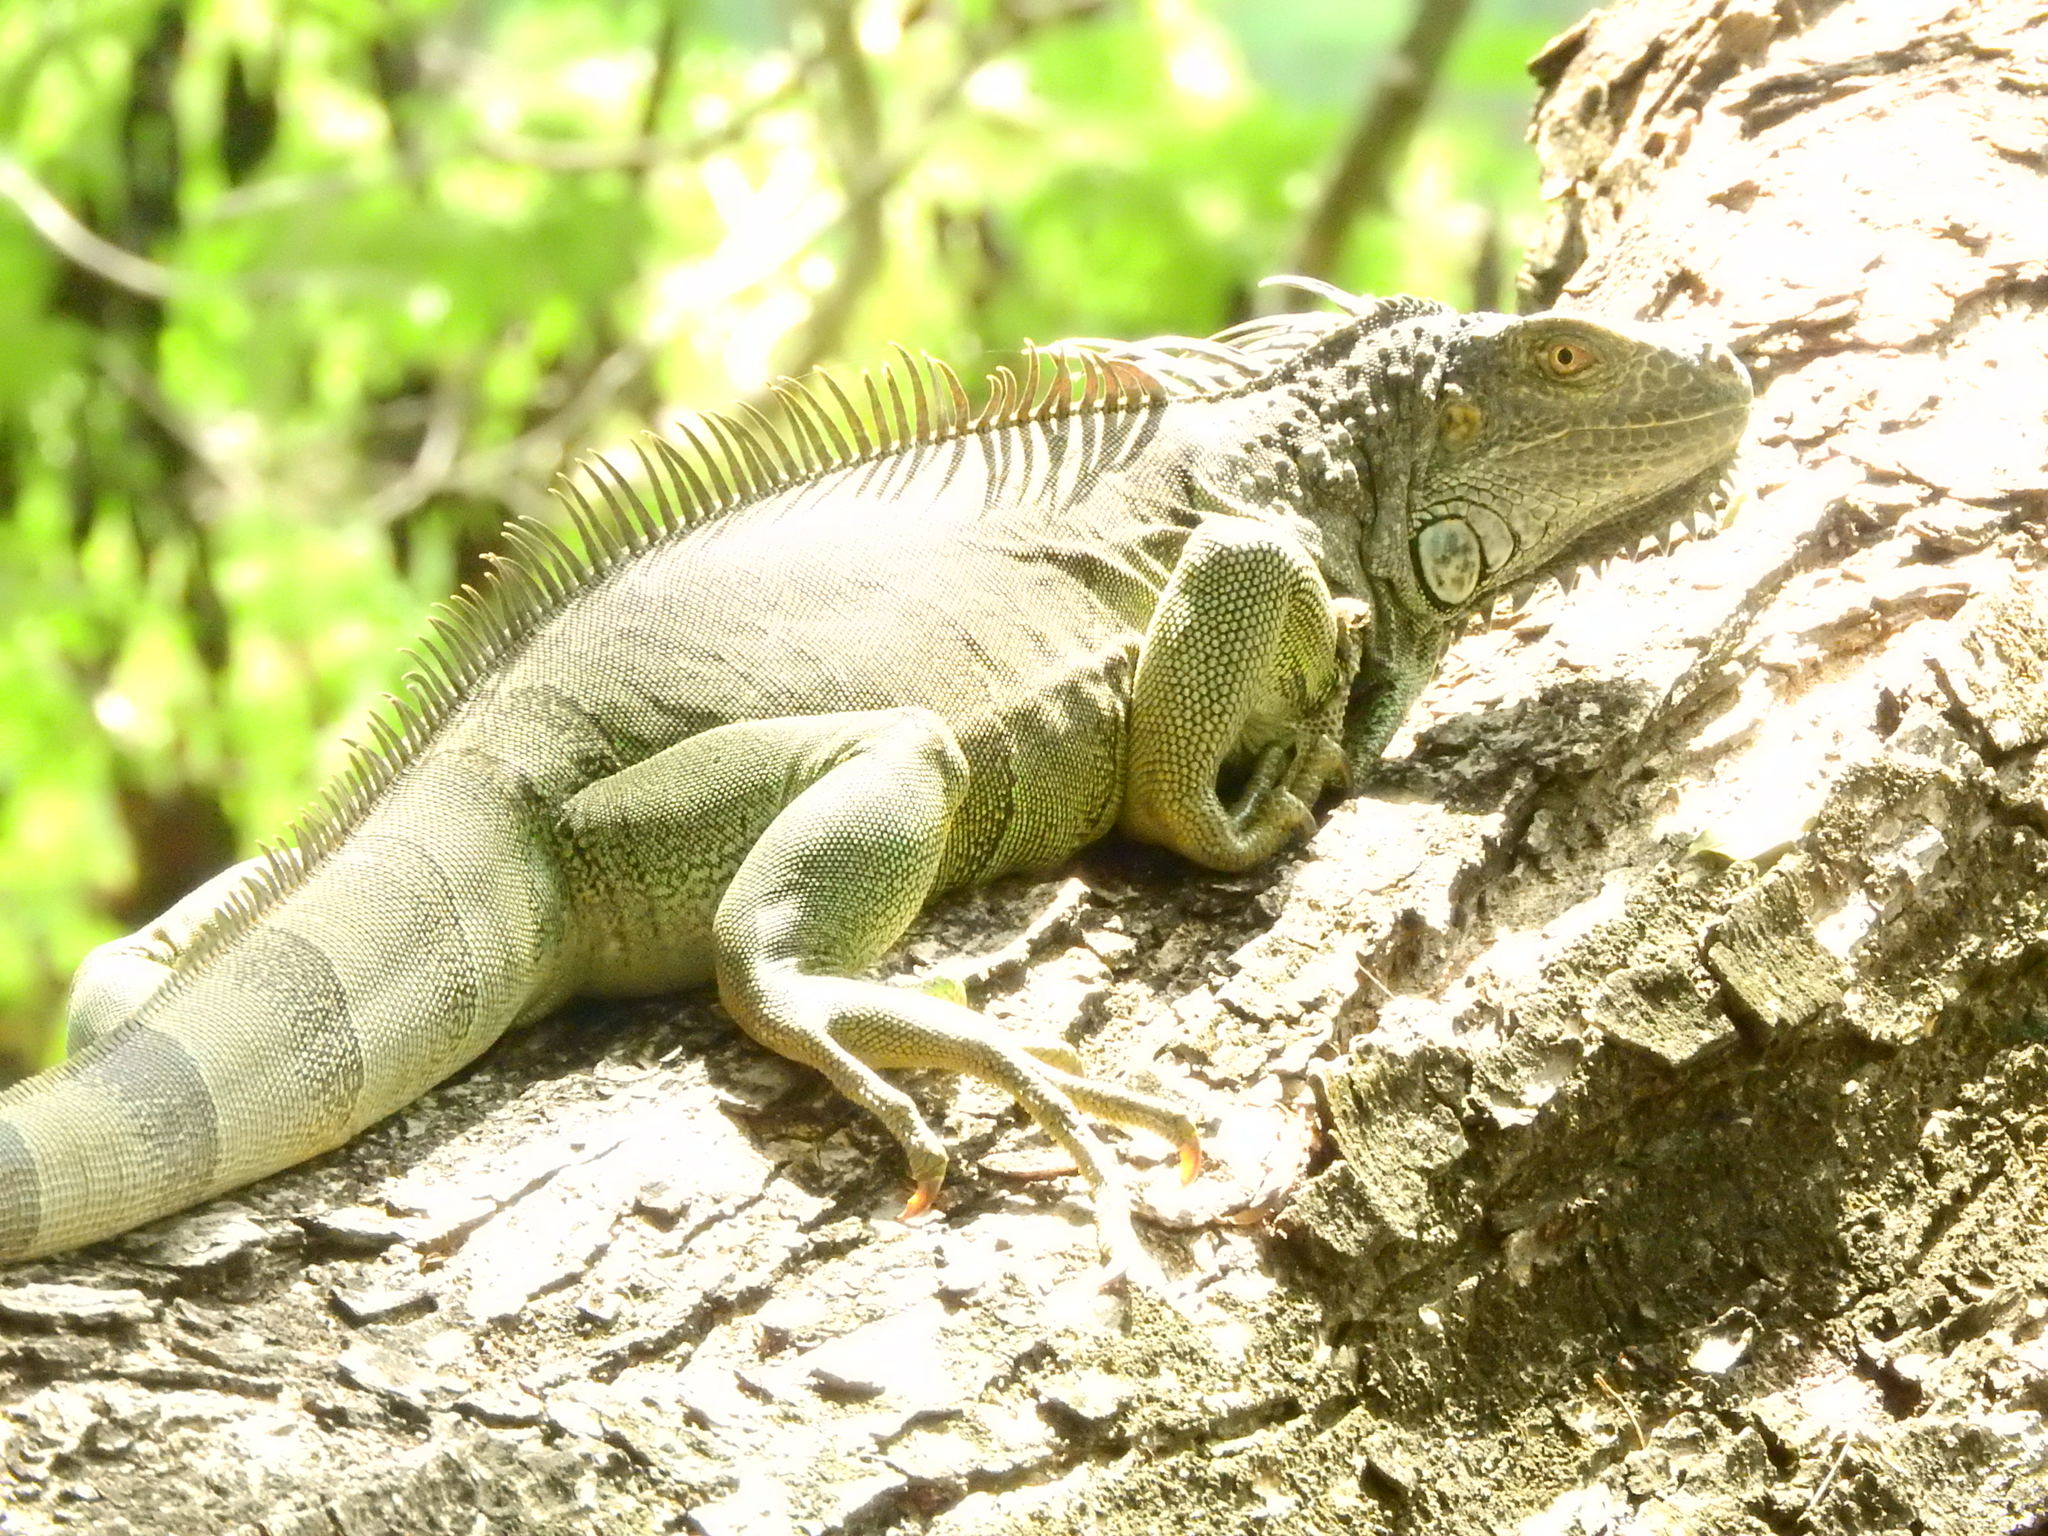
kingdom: Animalia
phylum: Chordata
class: Squamata
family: Iguanidae
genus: Iguana
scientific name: Iguana iguana
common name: Green iguana
